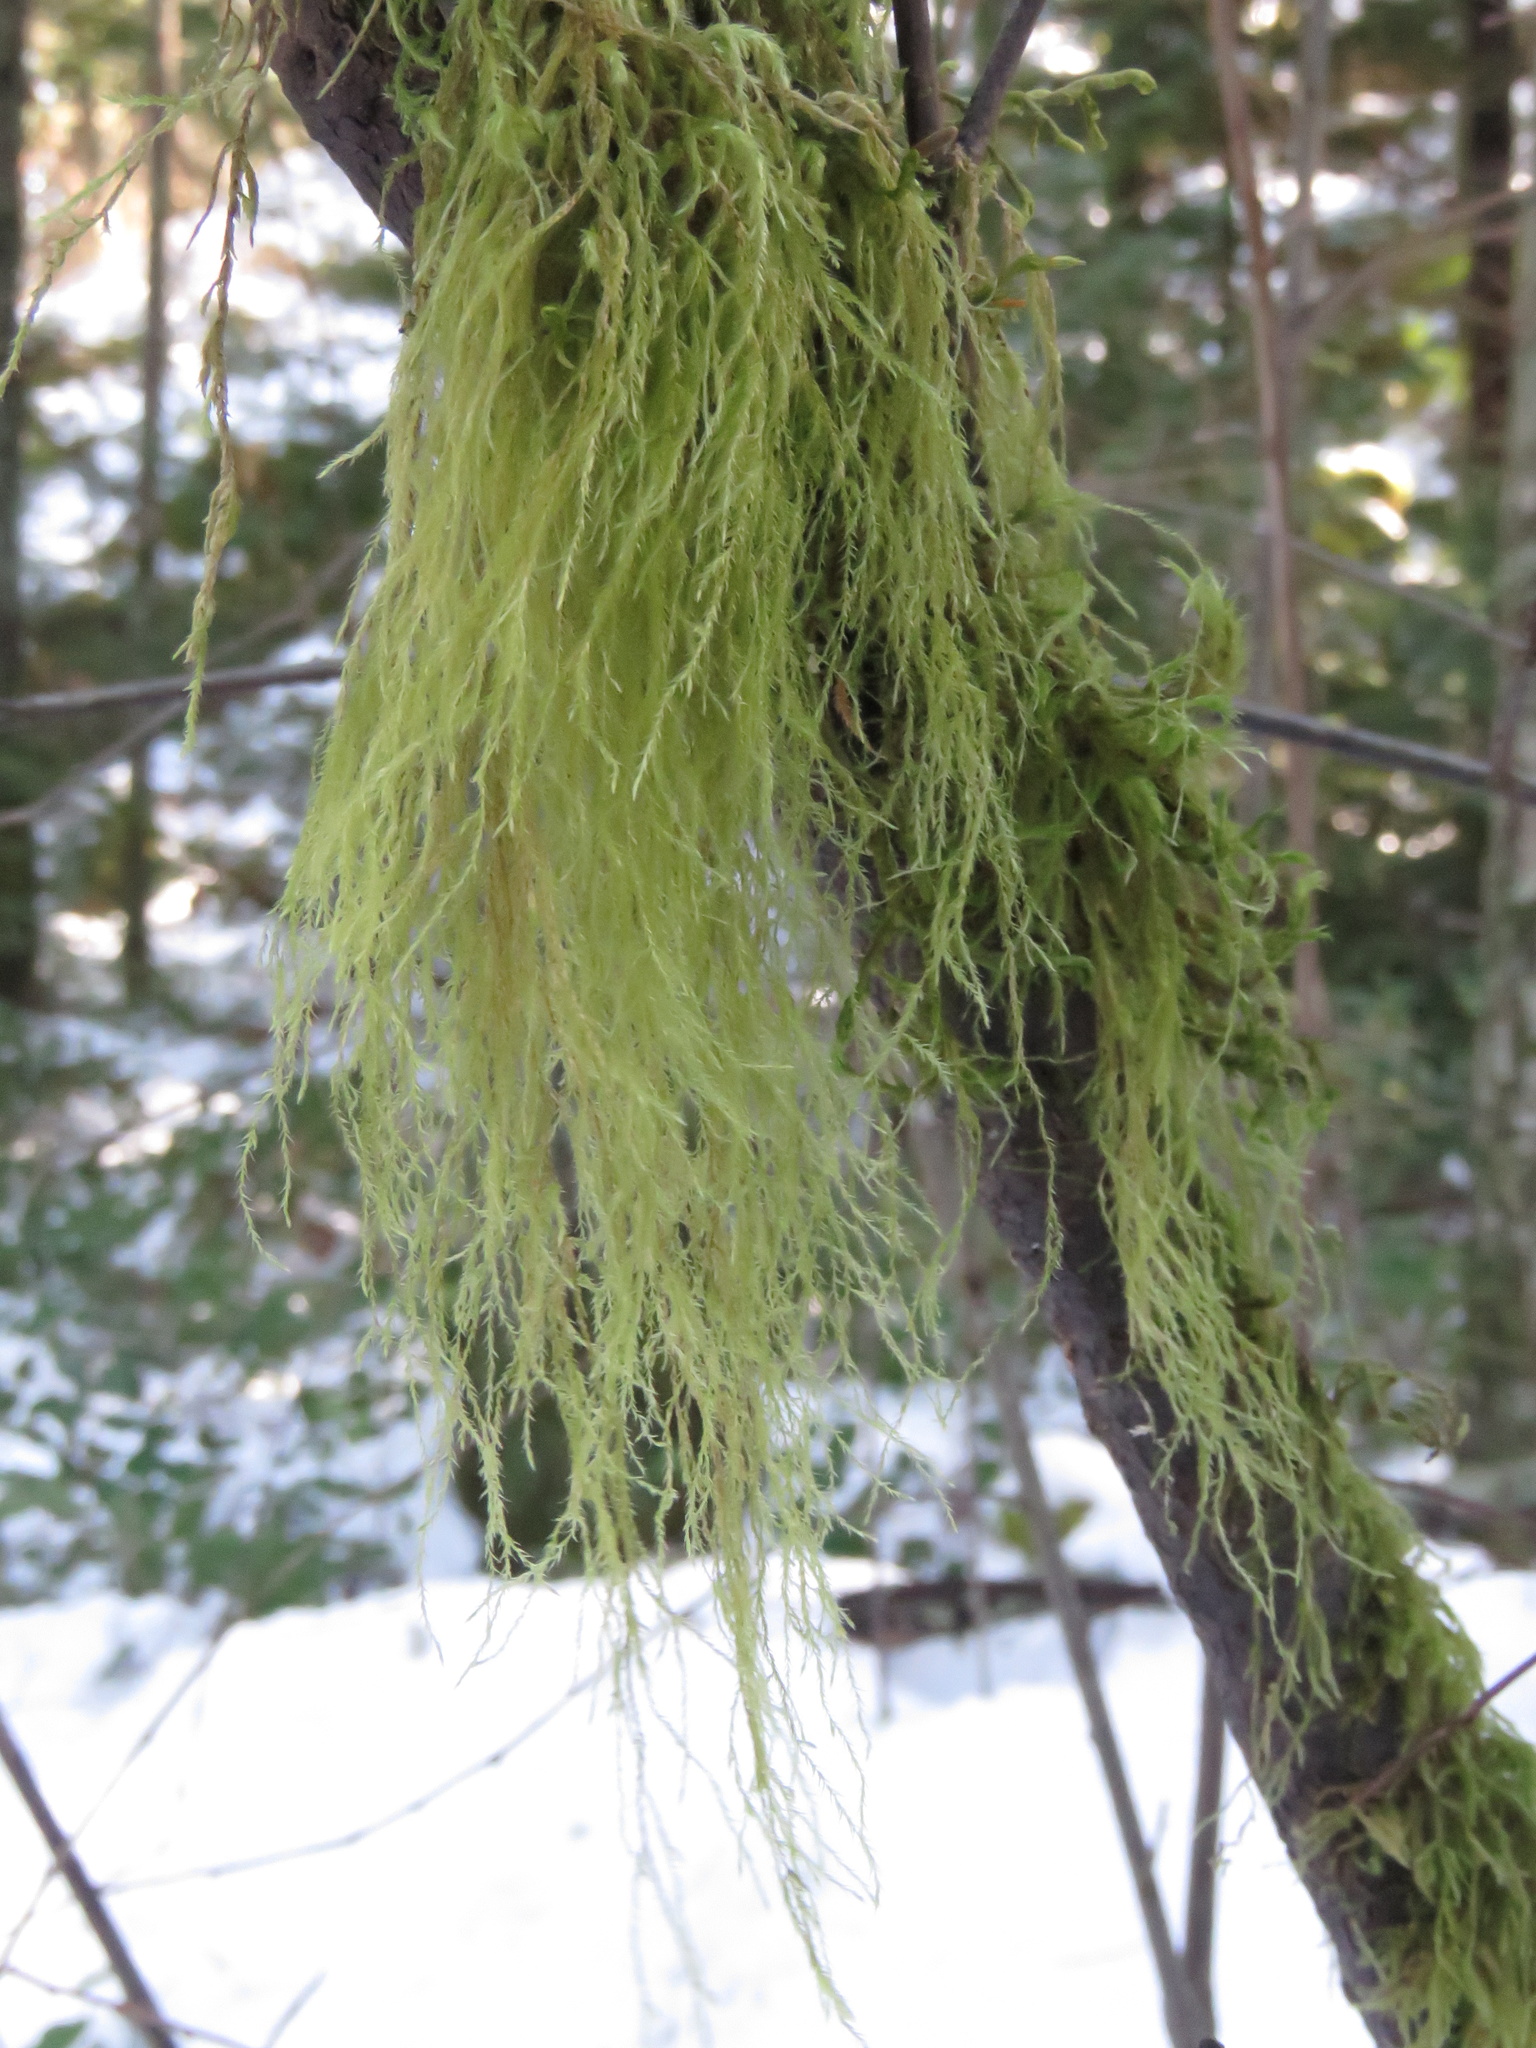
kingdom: Plantae
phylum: Bryophyta
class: Bryopsida
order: Hypnales
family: Lembophyllaceae
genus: Pseudisothecium
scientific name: Pseudisothecium stoloniferum
